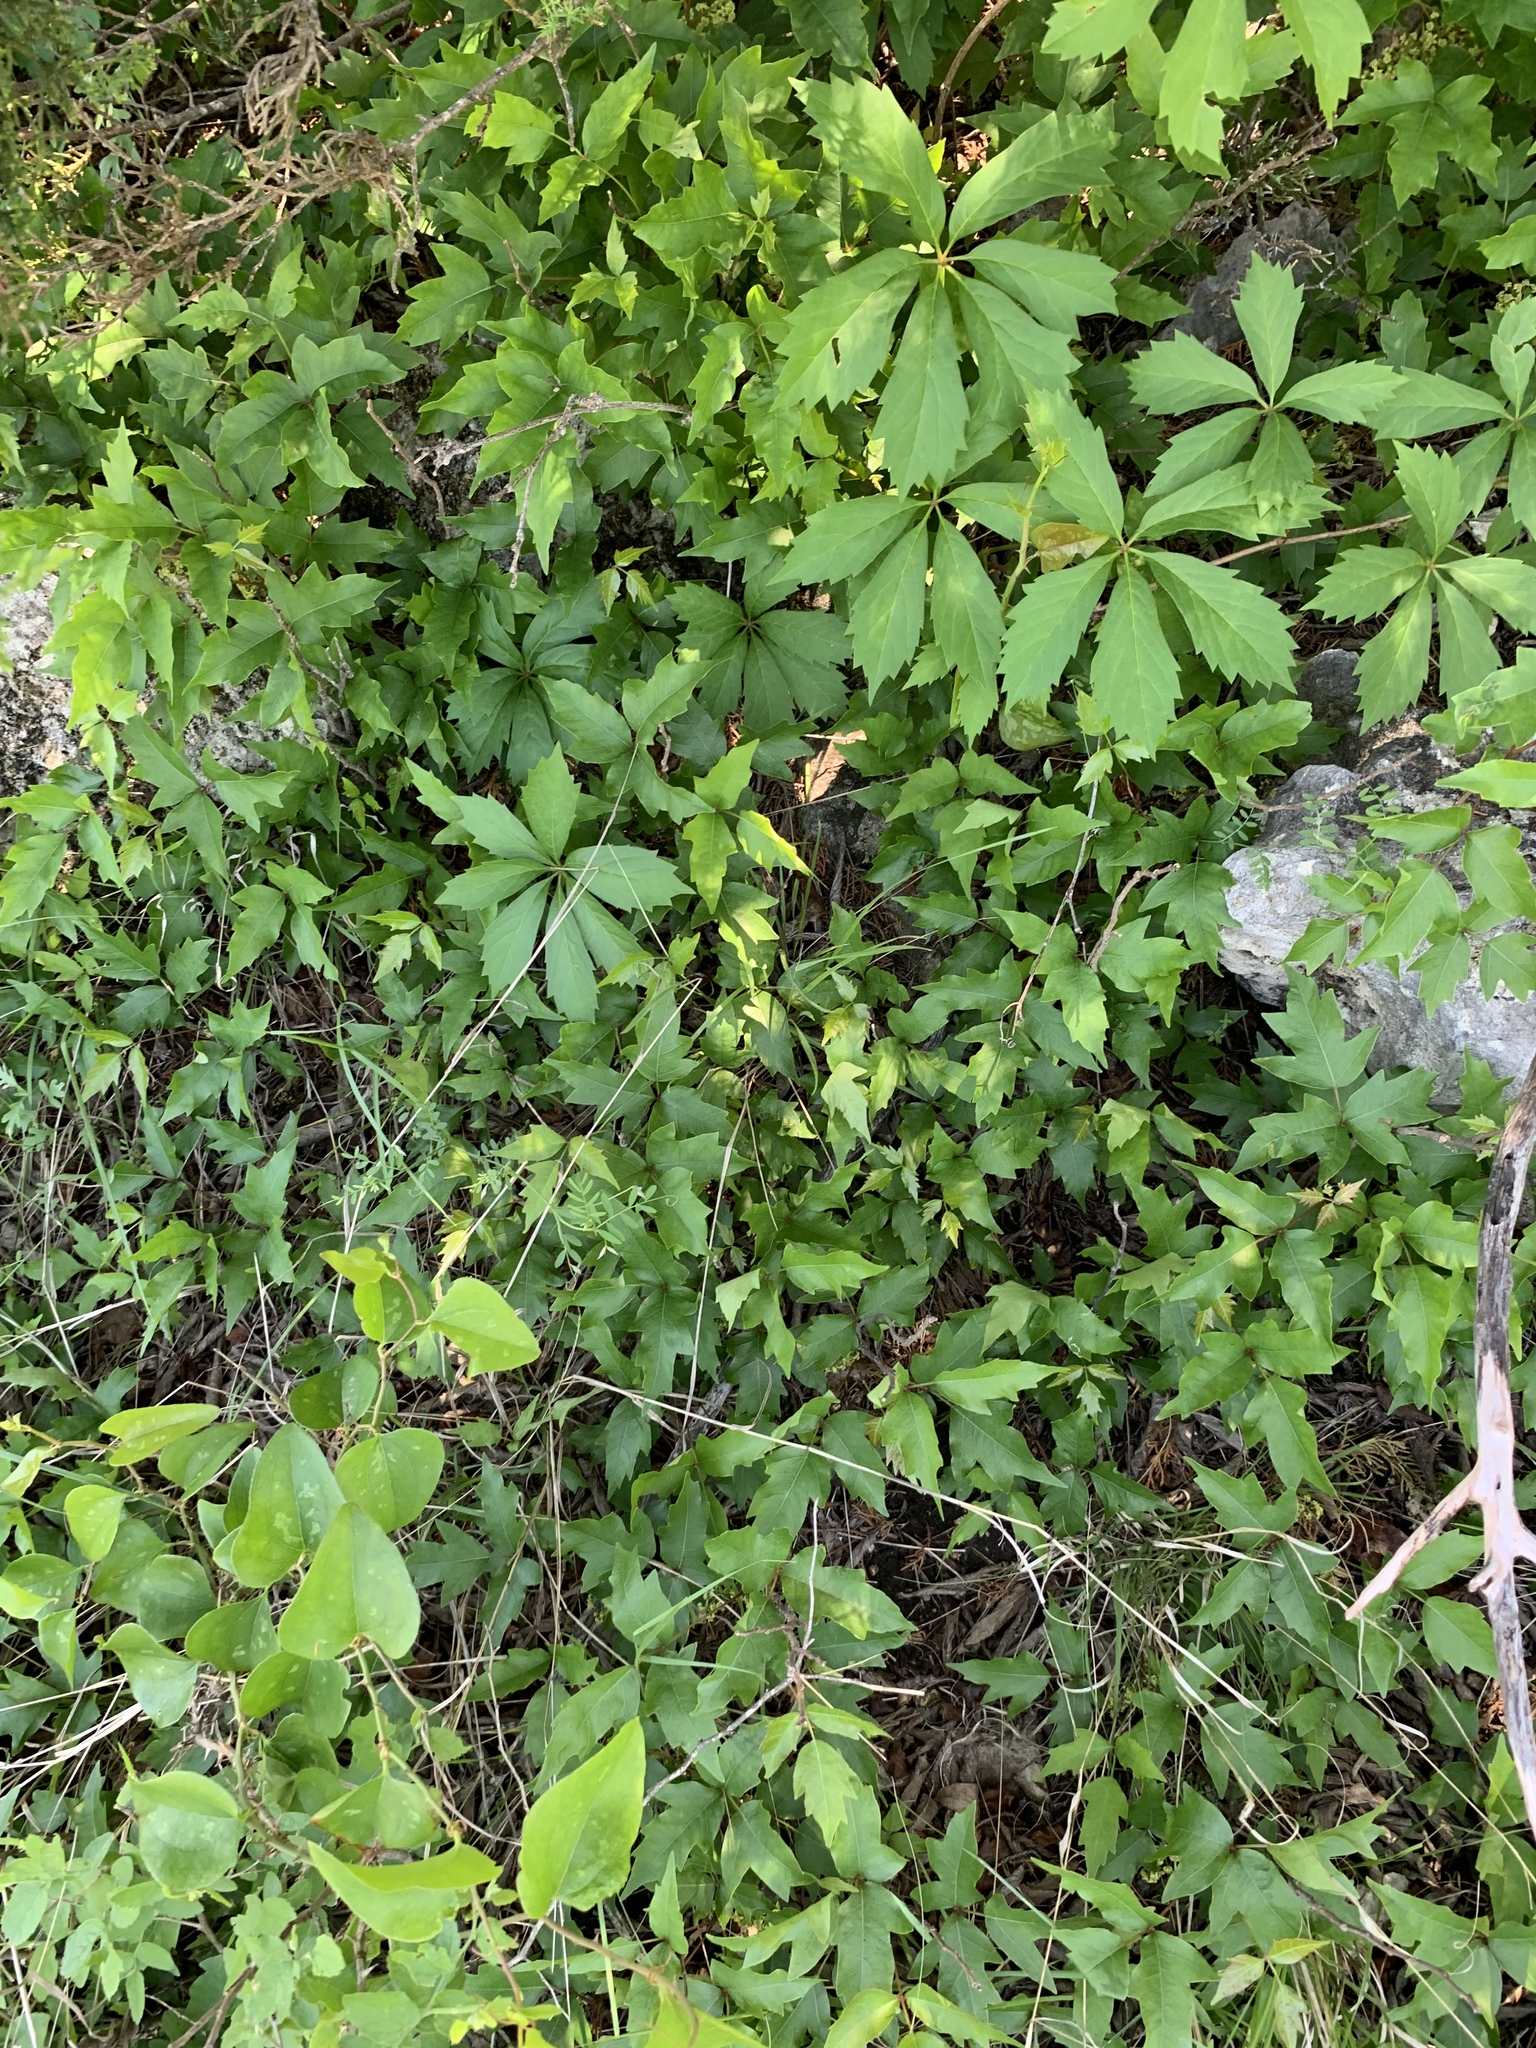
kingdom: Plantae
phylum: Tracheophyta
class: Magnoliopsida
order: Vitales
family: Vitaceae
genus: Parthenocissus
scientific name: Parthenocissus heptaphylla
